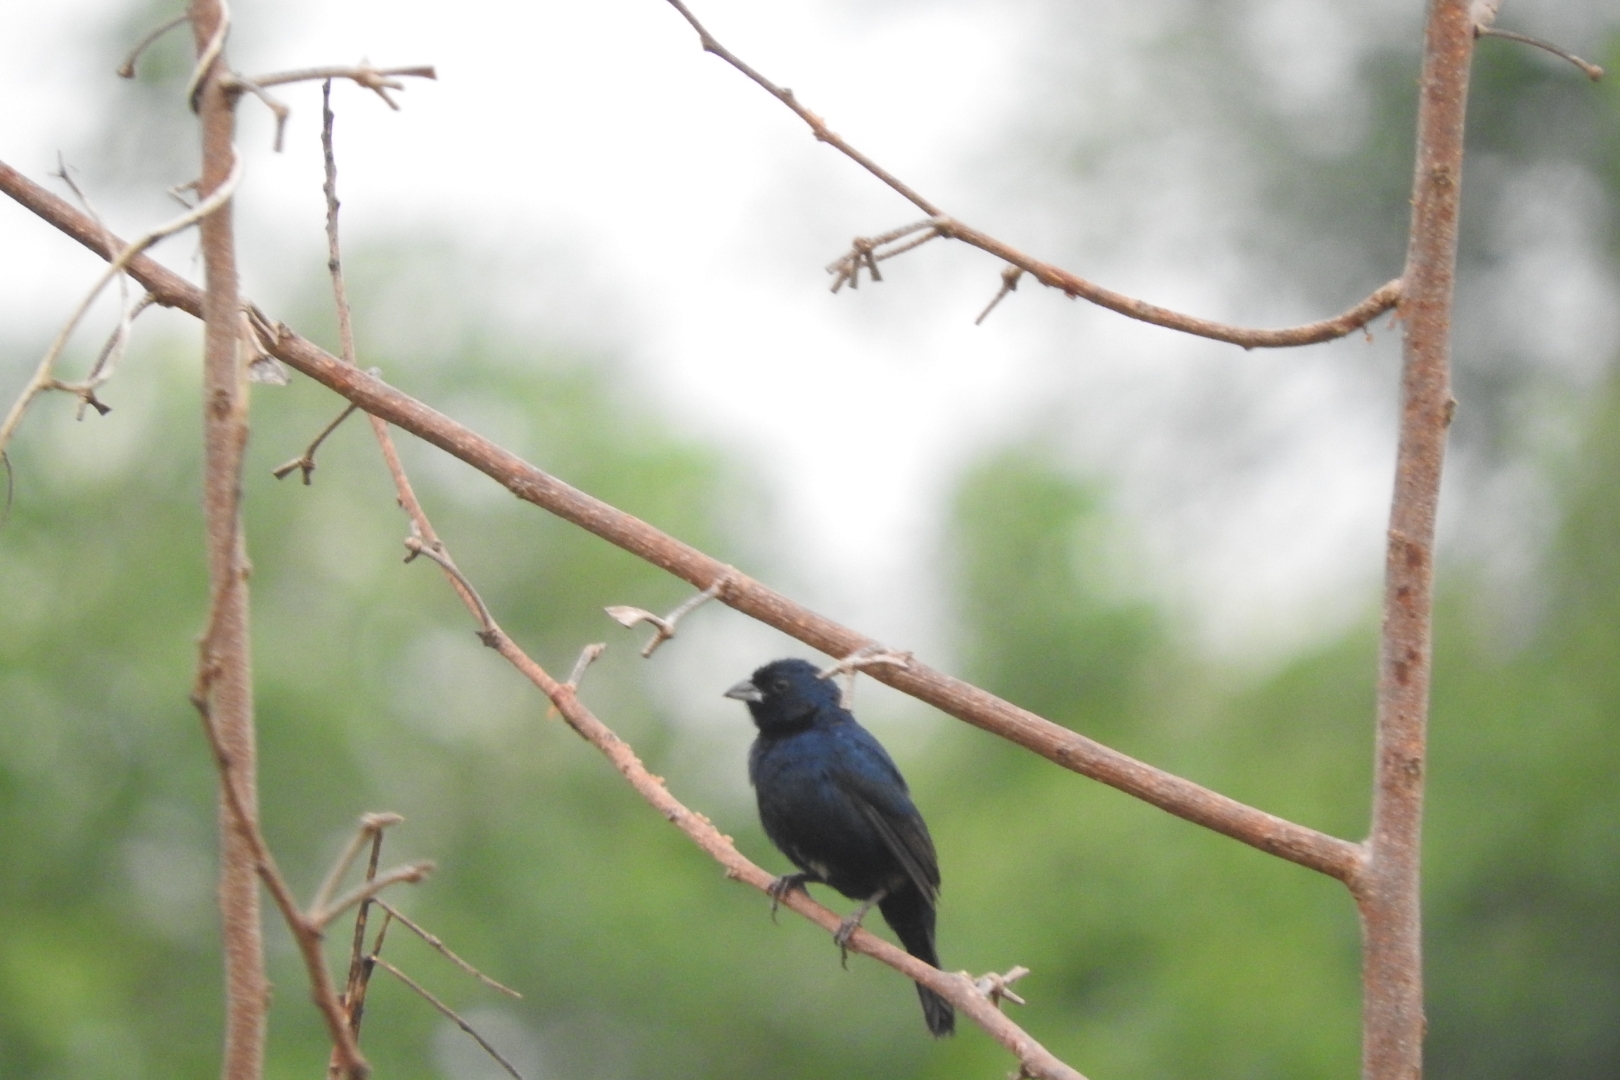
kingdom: Animalia
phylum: Chordata
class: Aves
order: Passeriformes
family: Thraupidae
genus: Volatinia
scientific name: Volatinia jacarina
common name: Blue-black grassquit
